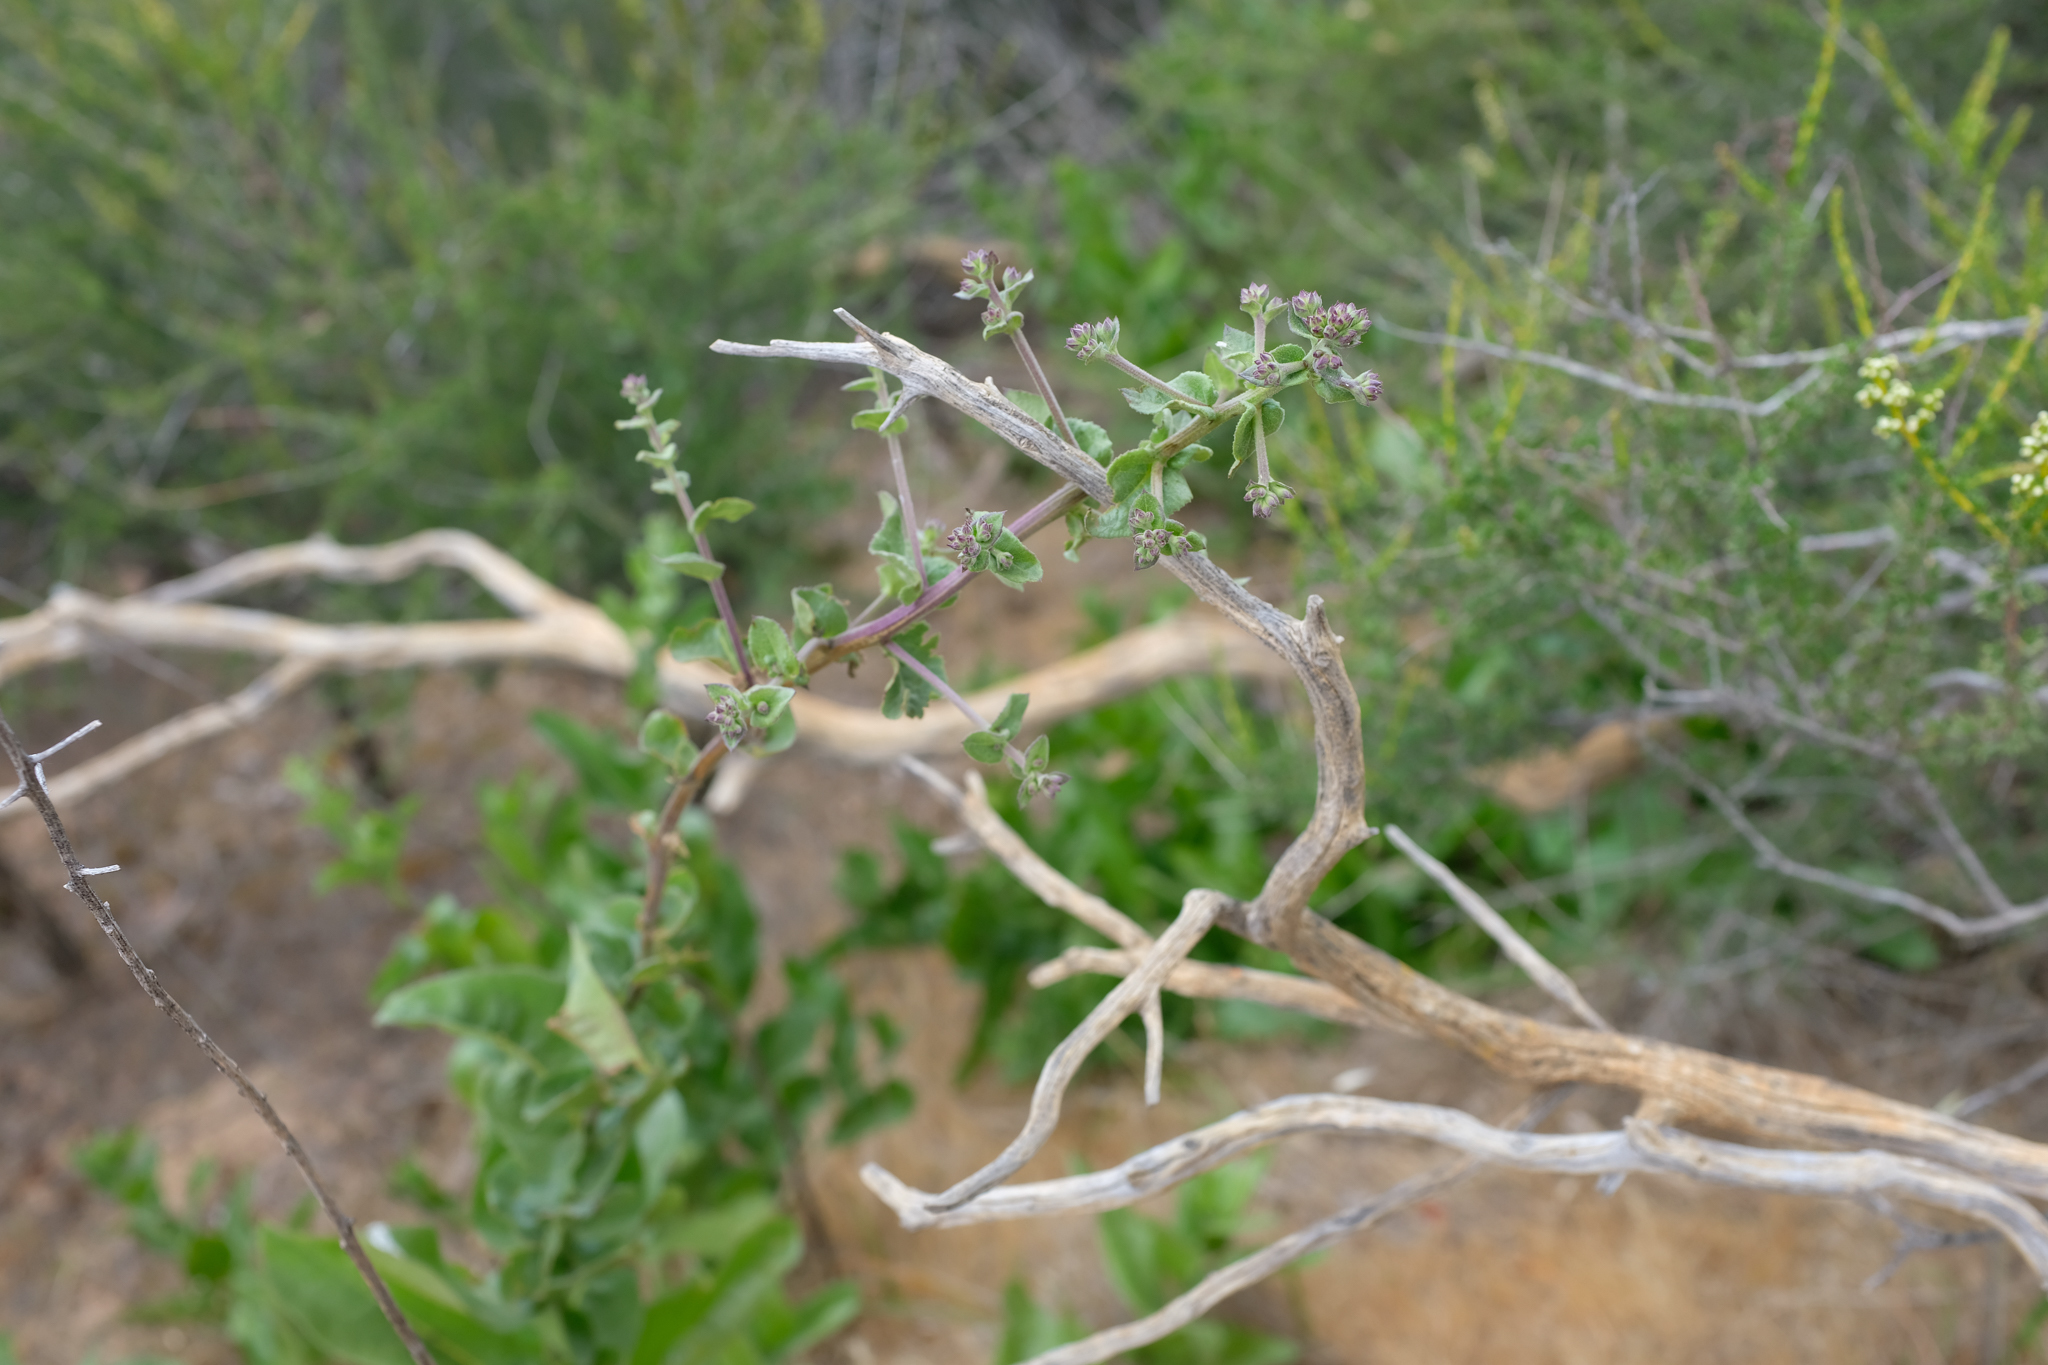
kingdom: Plantae
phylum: Tracheophyta
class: Magnoliopsida
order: Asterales
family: Asteraceae
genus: Acourtia
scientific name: Acourtia microcephala
